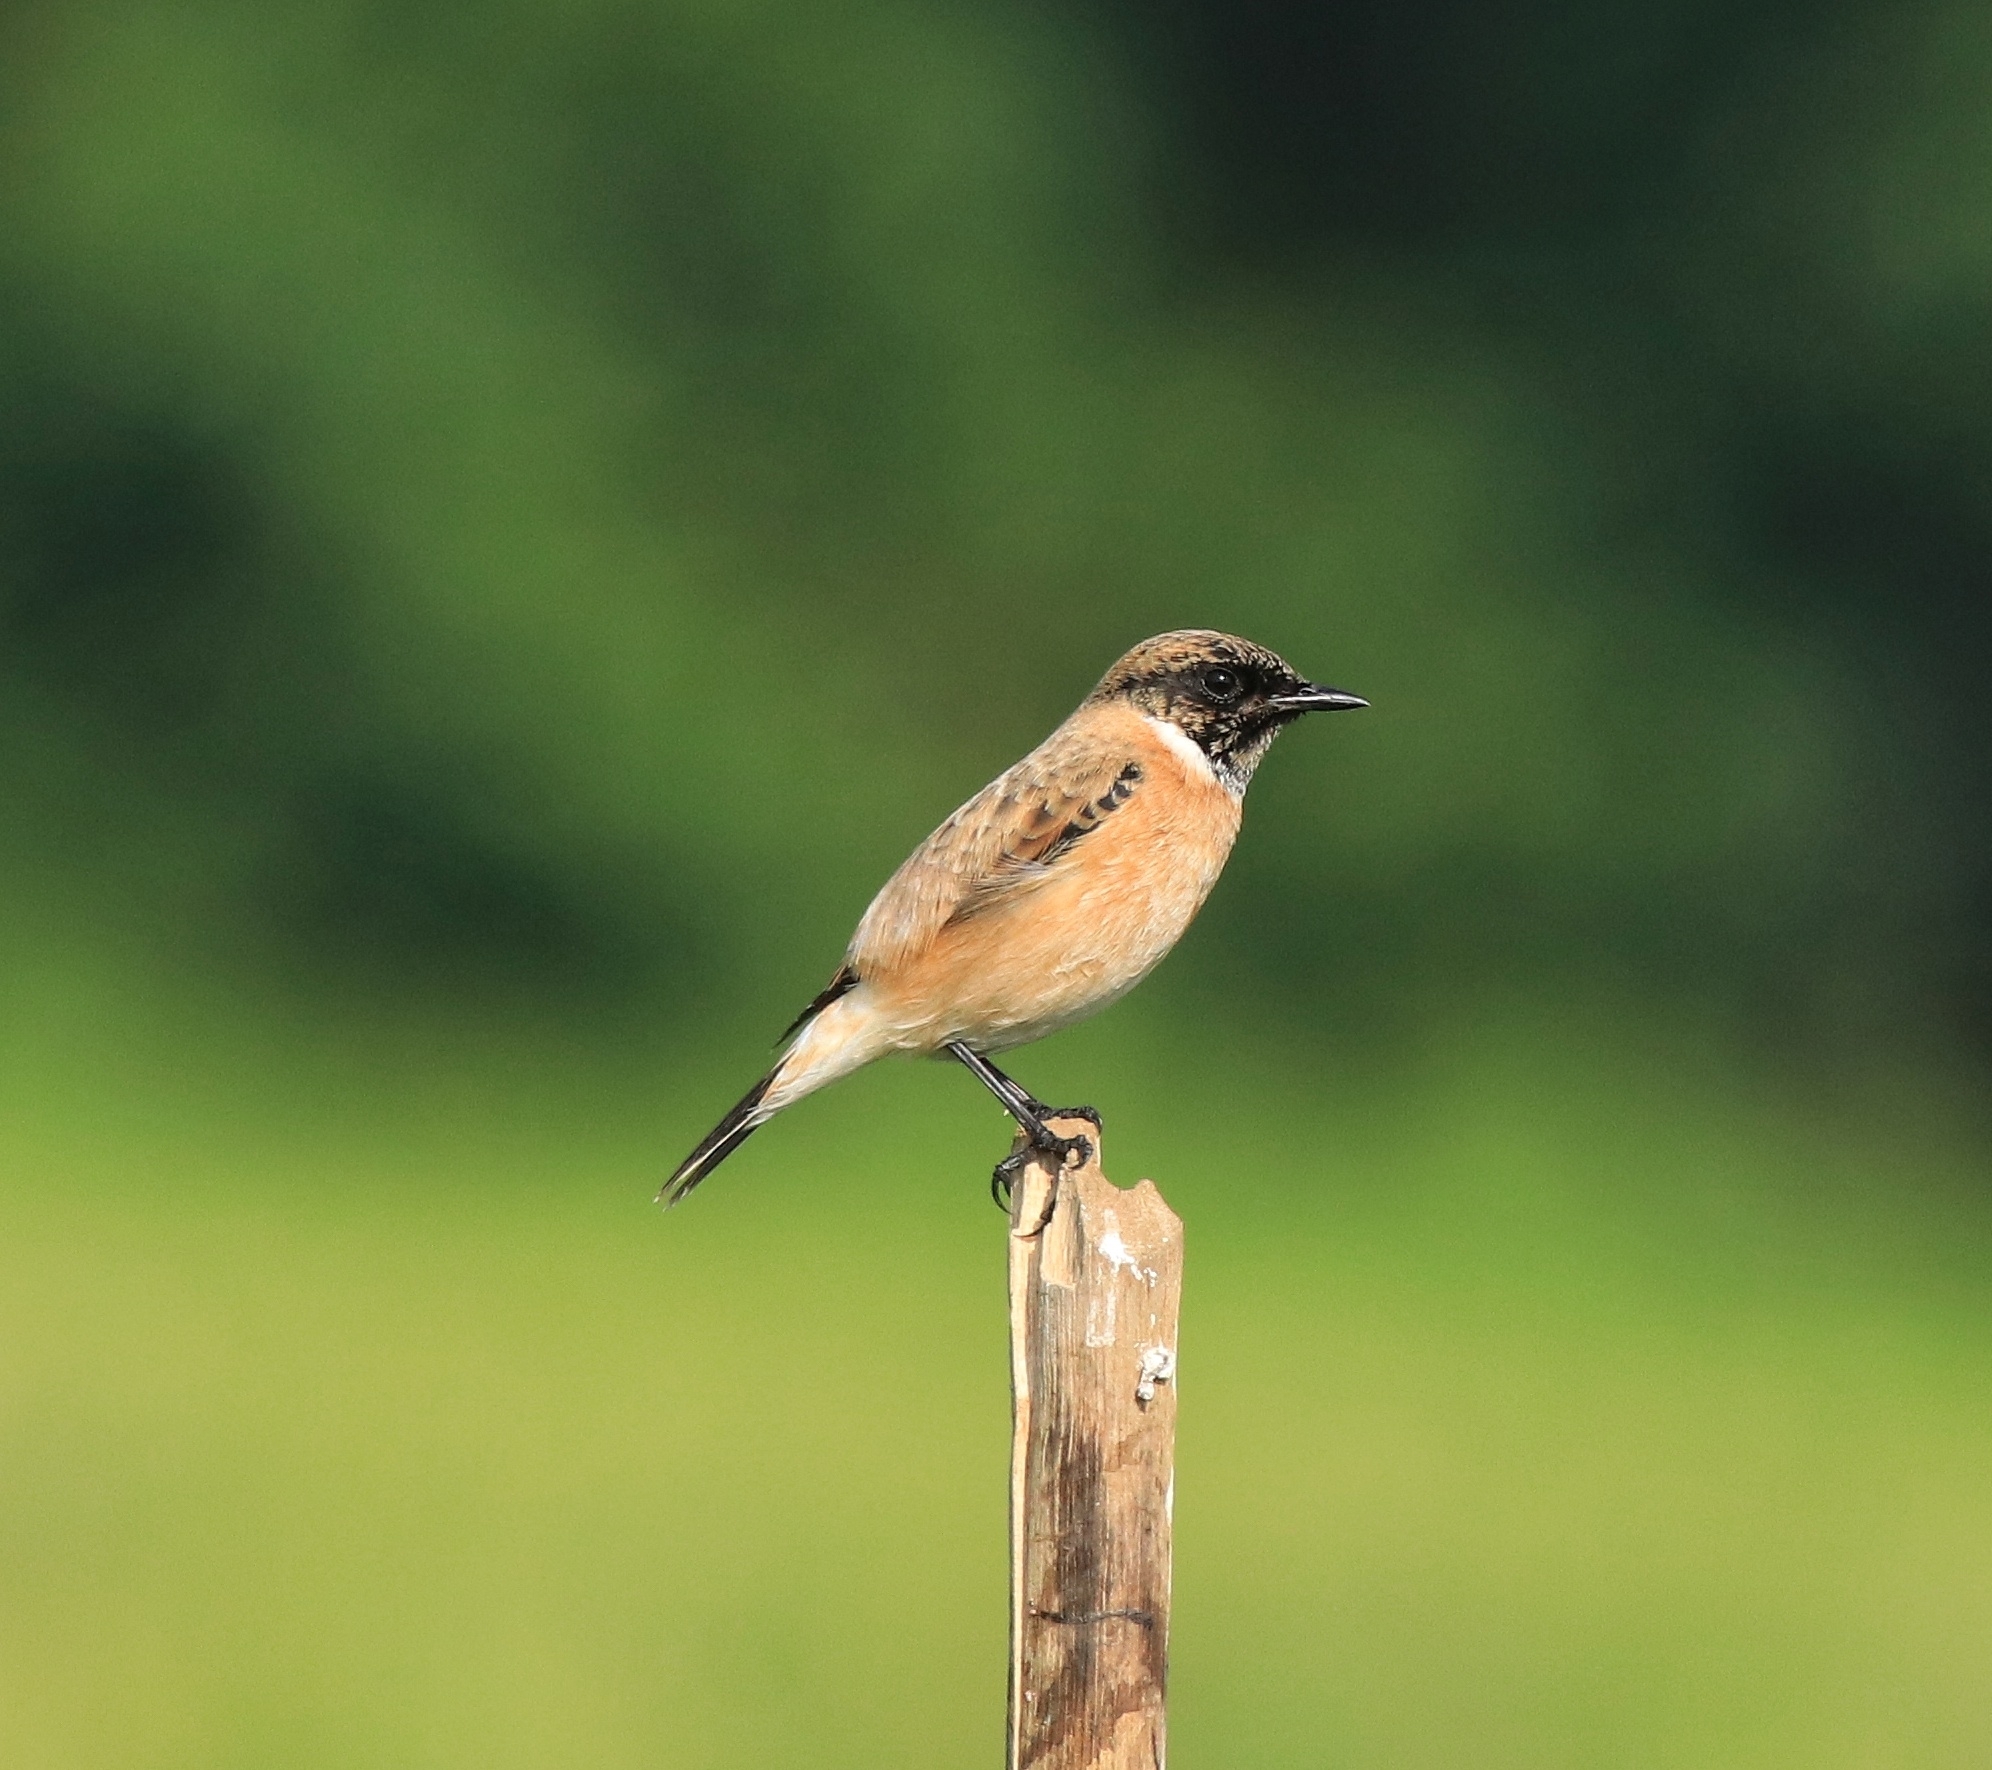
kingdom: Animalia
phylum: Chordata
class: Aves
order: Passeriformes
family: Muscicapidae
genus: Saxicola
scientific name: Saxicola maurus
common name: Siberian stonechat
